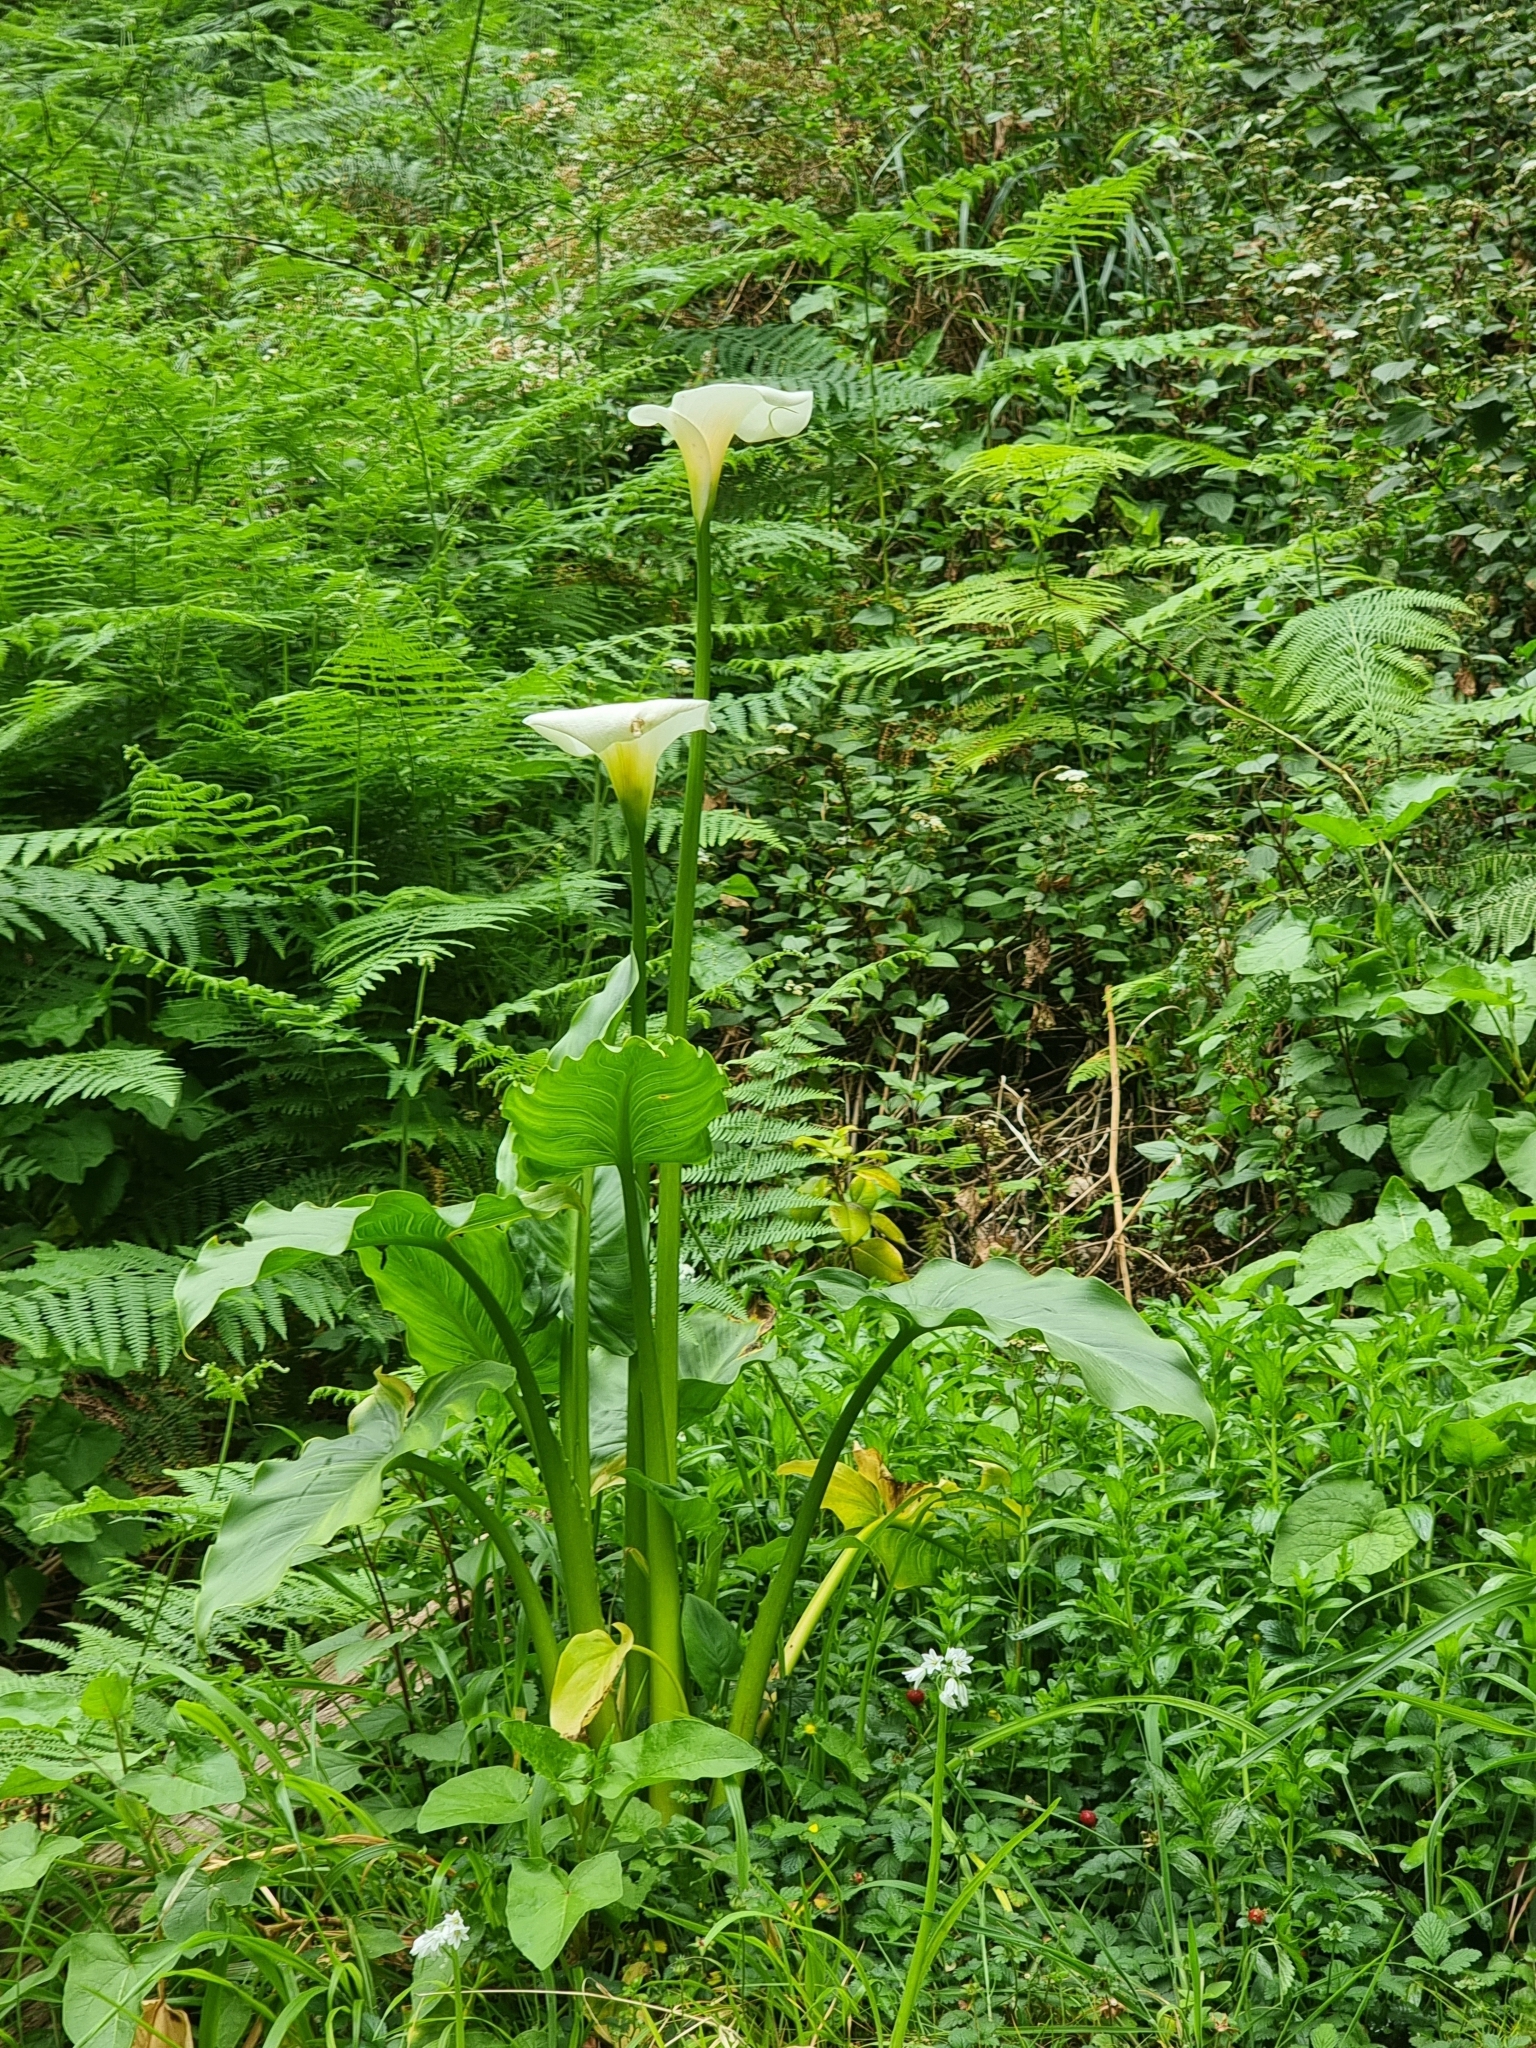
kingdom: Plantae
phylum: Tracheophyta
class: Liliopsida
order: Alismatales
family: Araceae
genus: Zantedeschia
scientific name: Zantedeschia aethiopica
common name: Altar-lily
